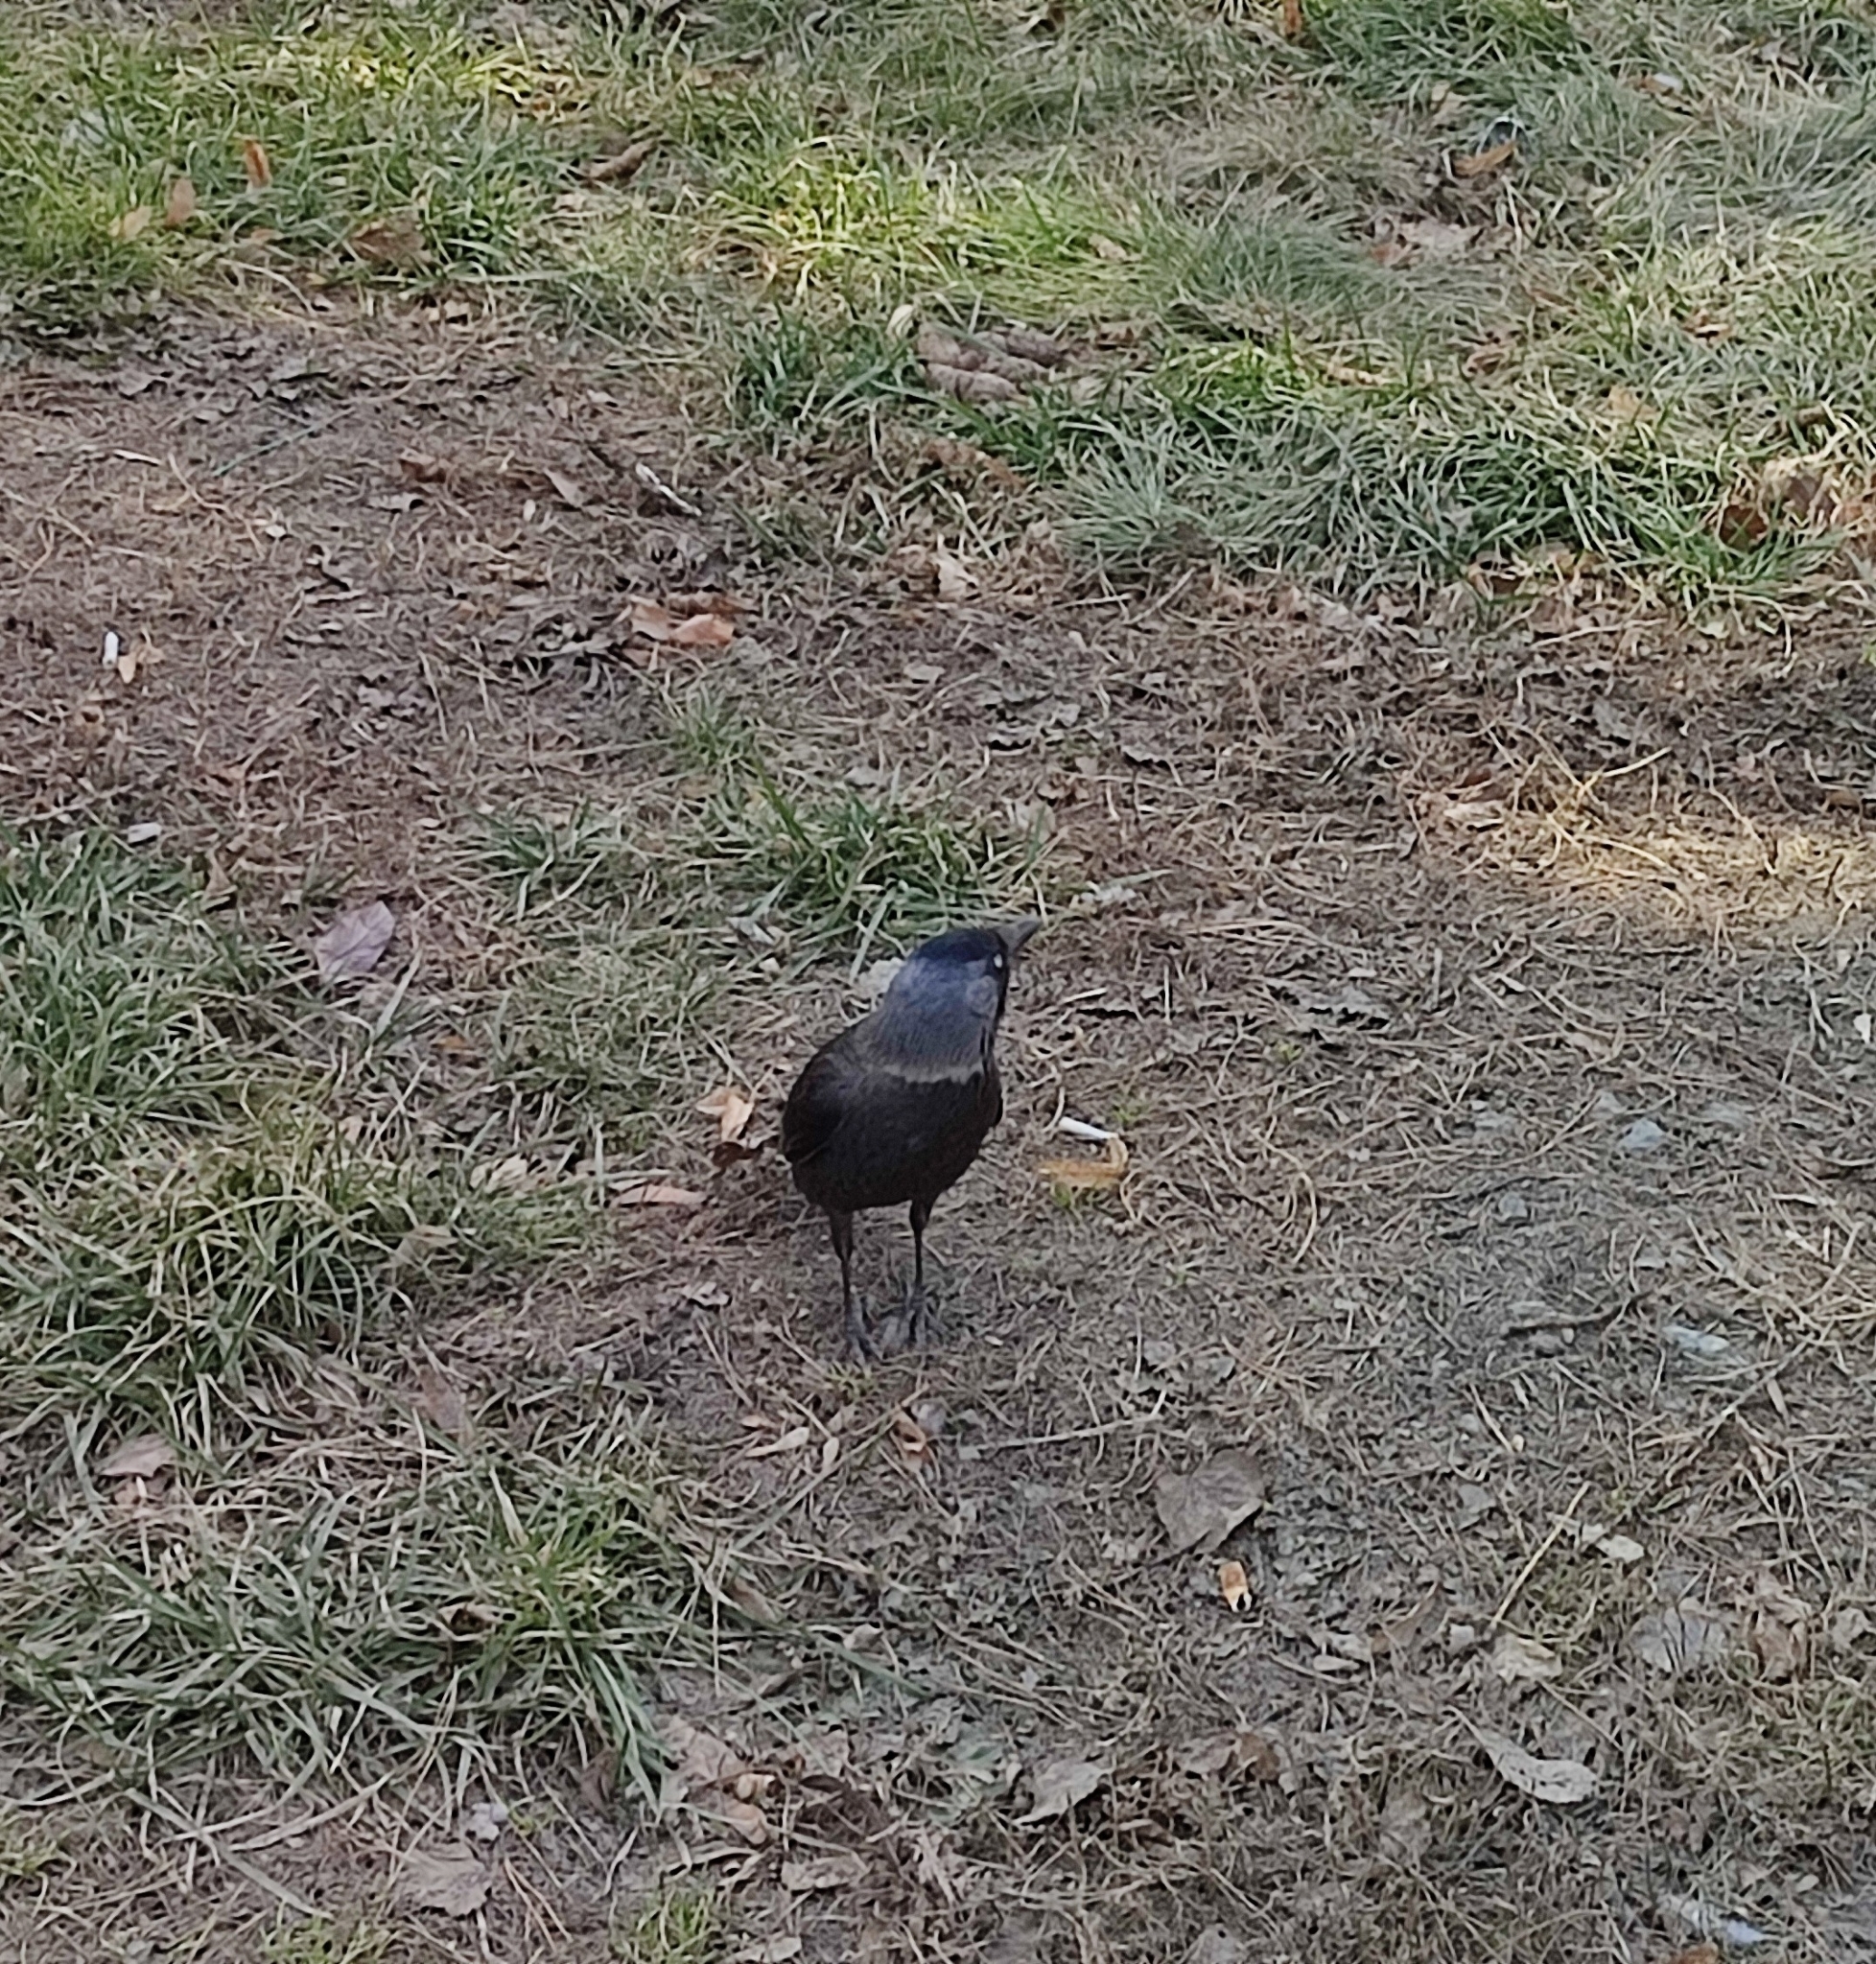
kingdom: Animalia
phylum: Chordata
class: Aves
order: Passeriformes
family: Corvidae
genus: Coloeus
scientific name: Coloeus monedula
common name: Western jackdaw
